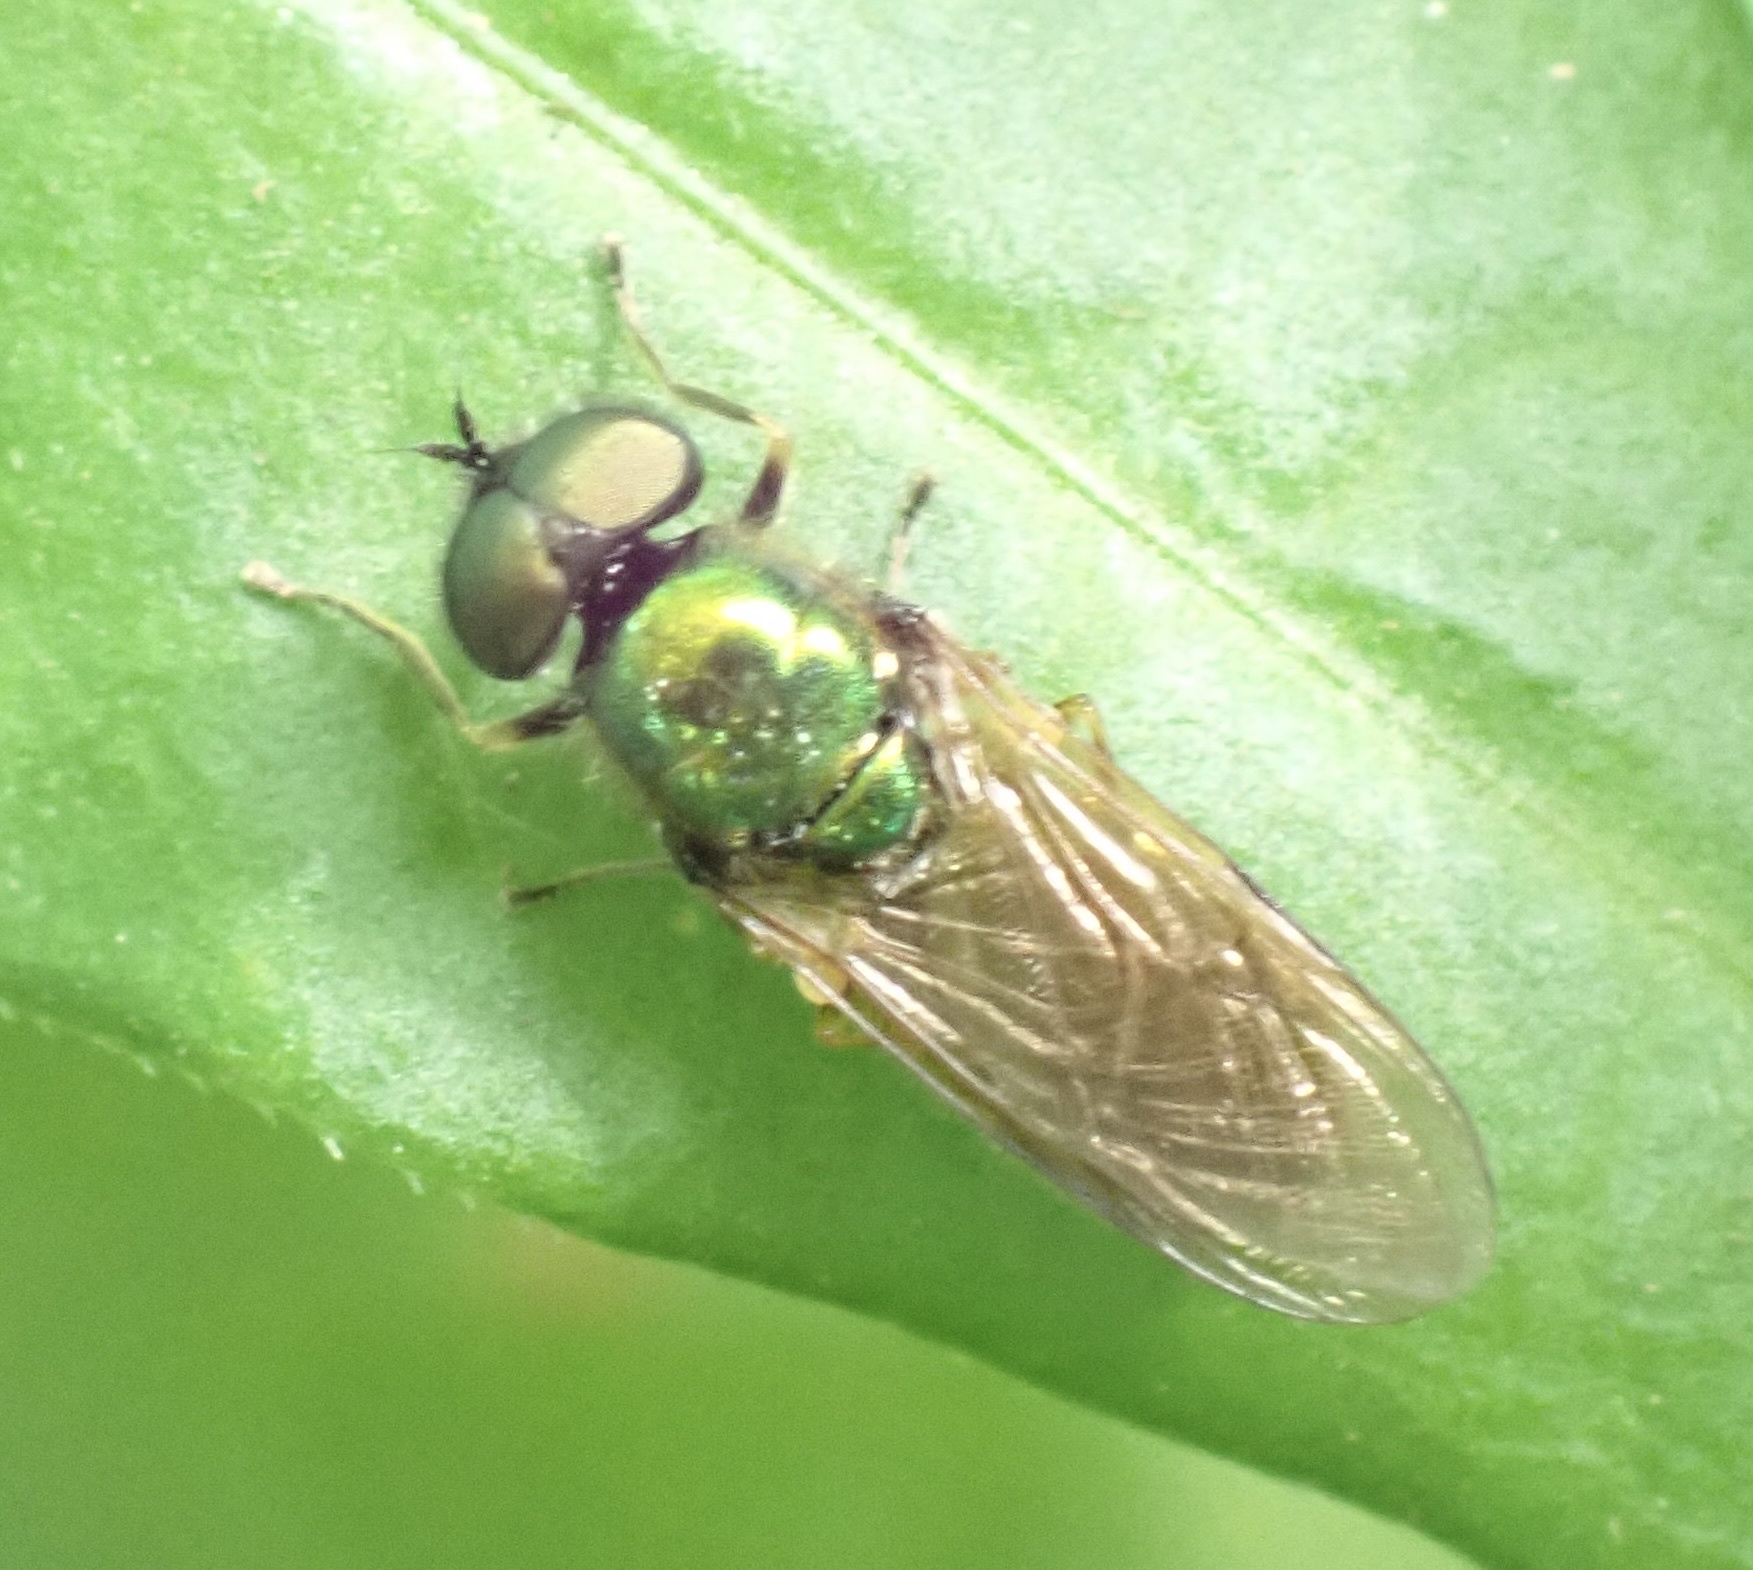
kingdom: Animalia
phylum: Arthropoda
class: Insecta
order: Diptera
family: Stratiomyidae
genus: Chloromyia
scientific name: Chloromyia formosa
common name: Soldier fly
